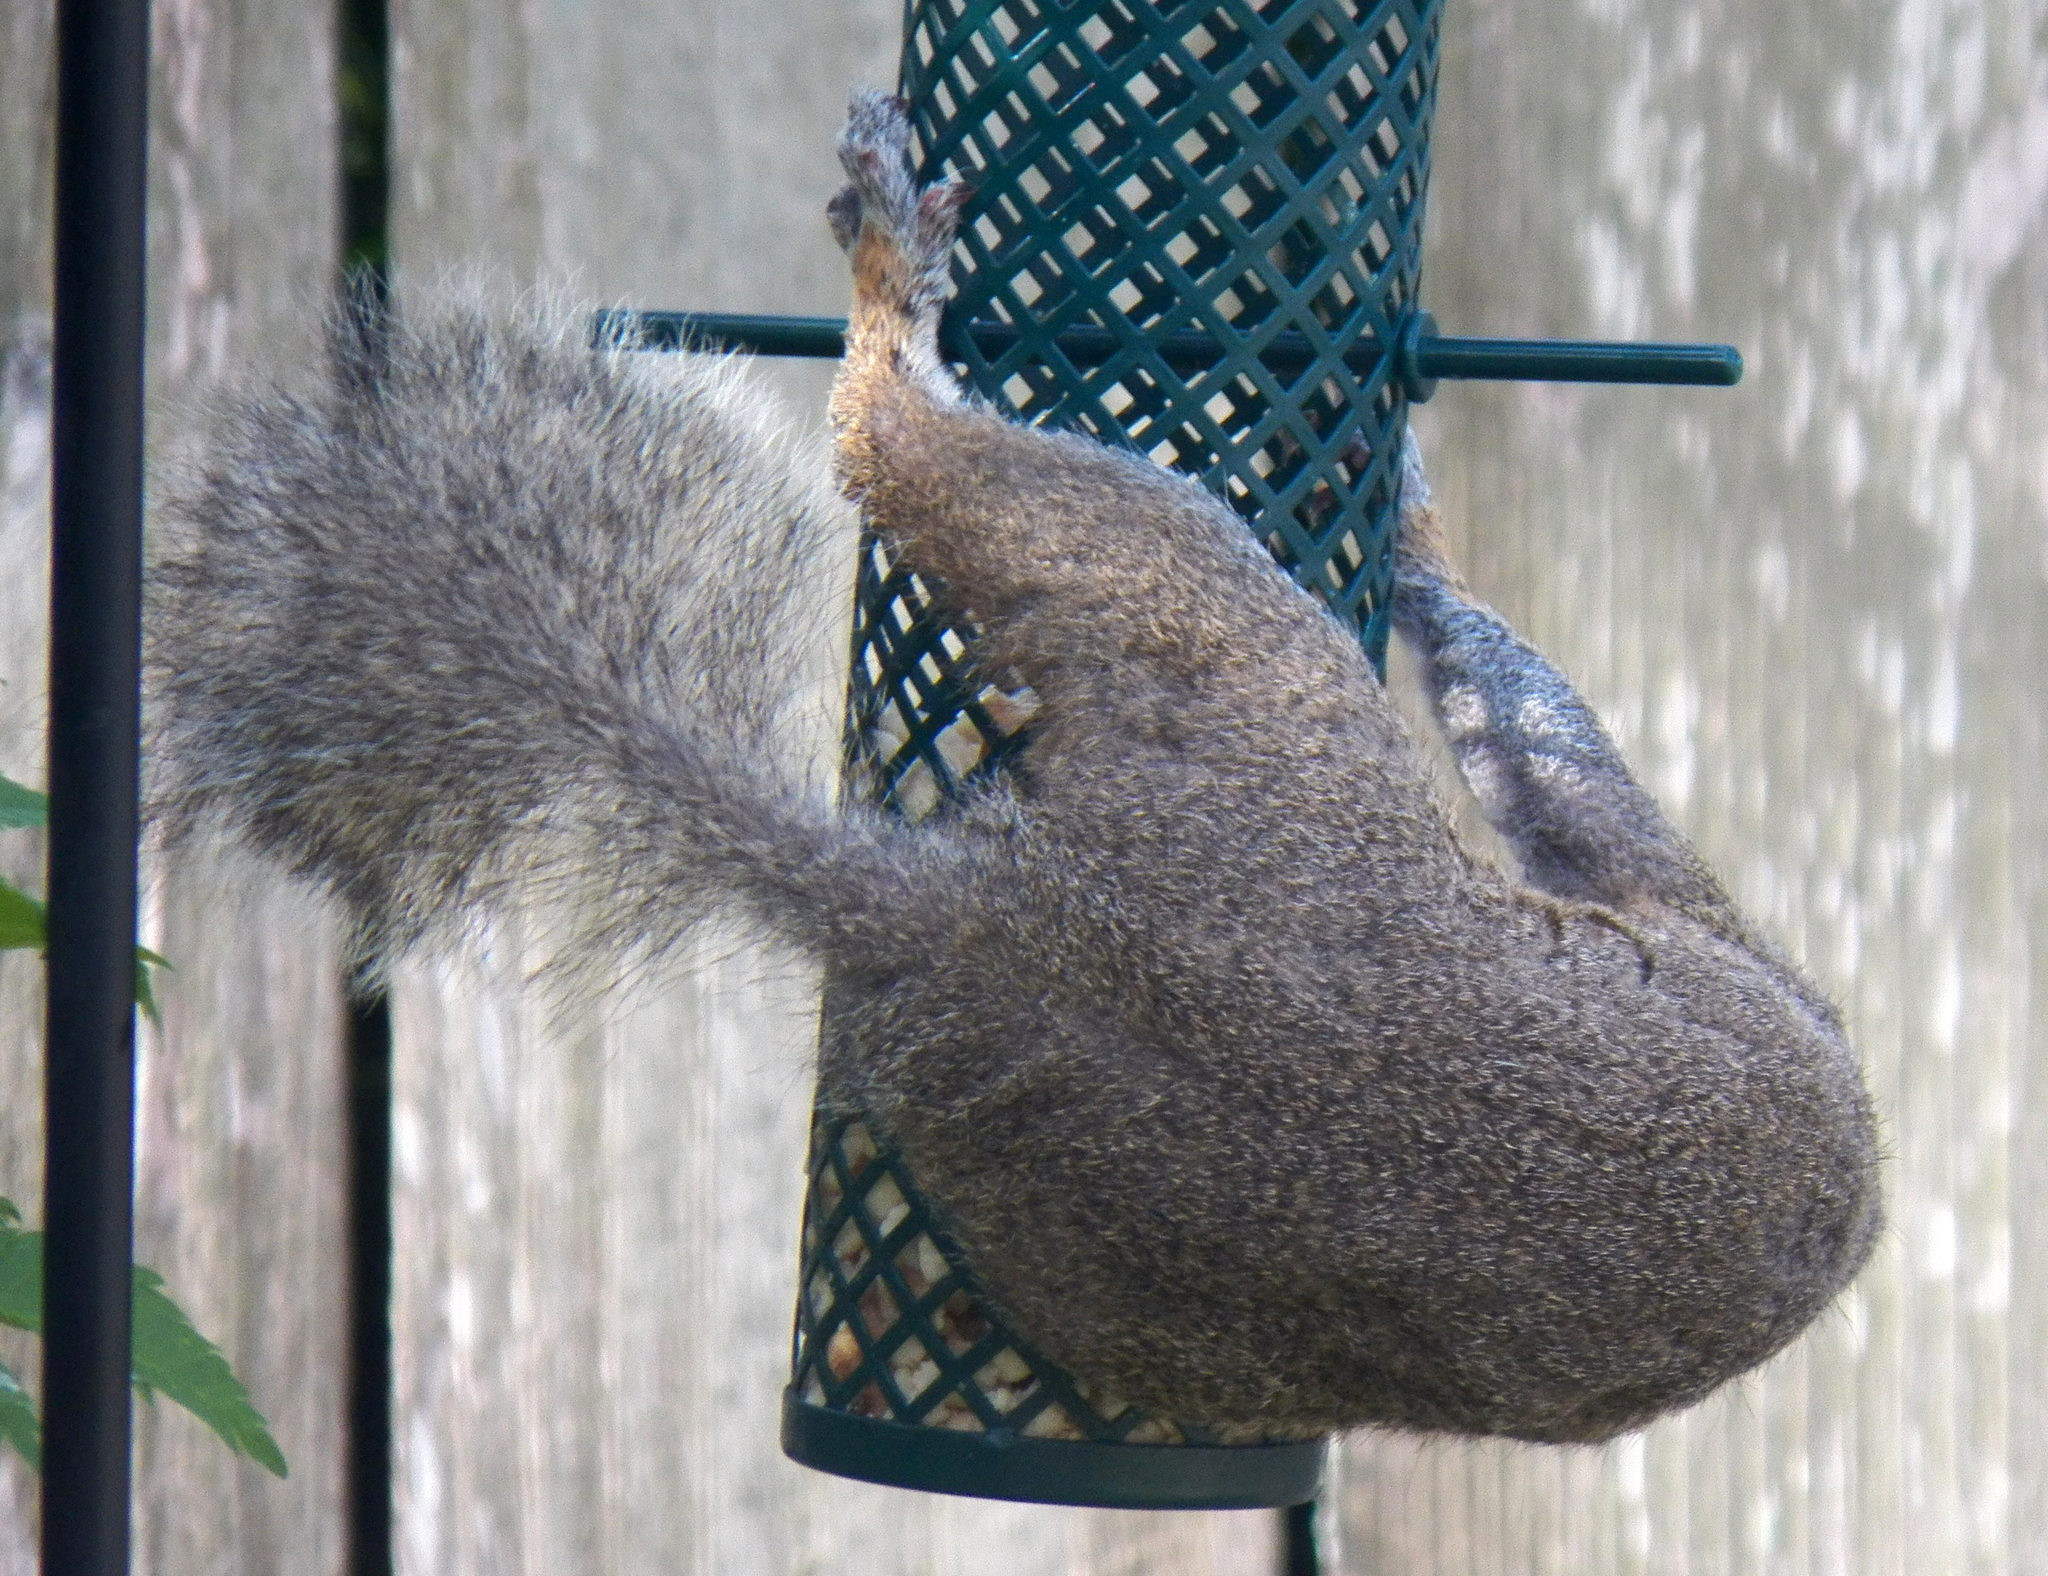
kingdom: Animalia
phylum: Chordata
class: Mammalia
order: Rodentia
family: Sciuridae
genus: Sciurus
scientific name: Sciurus carolinensis
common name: Eastern gray squirrel
